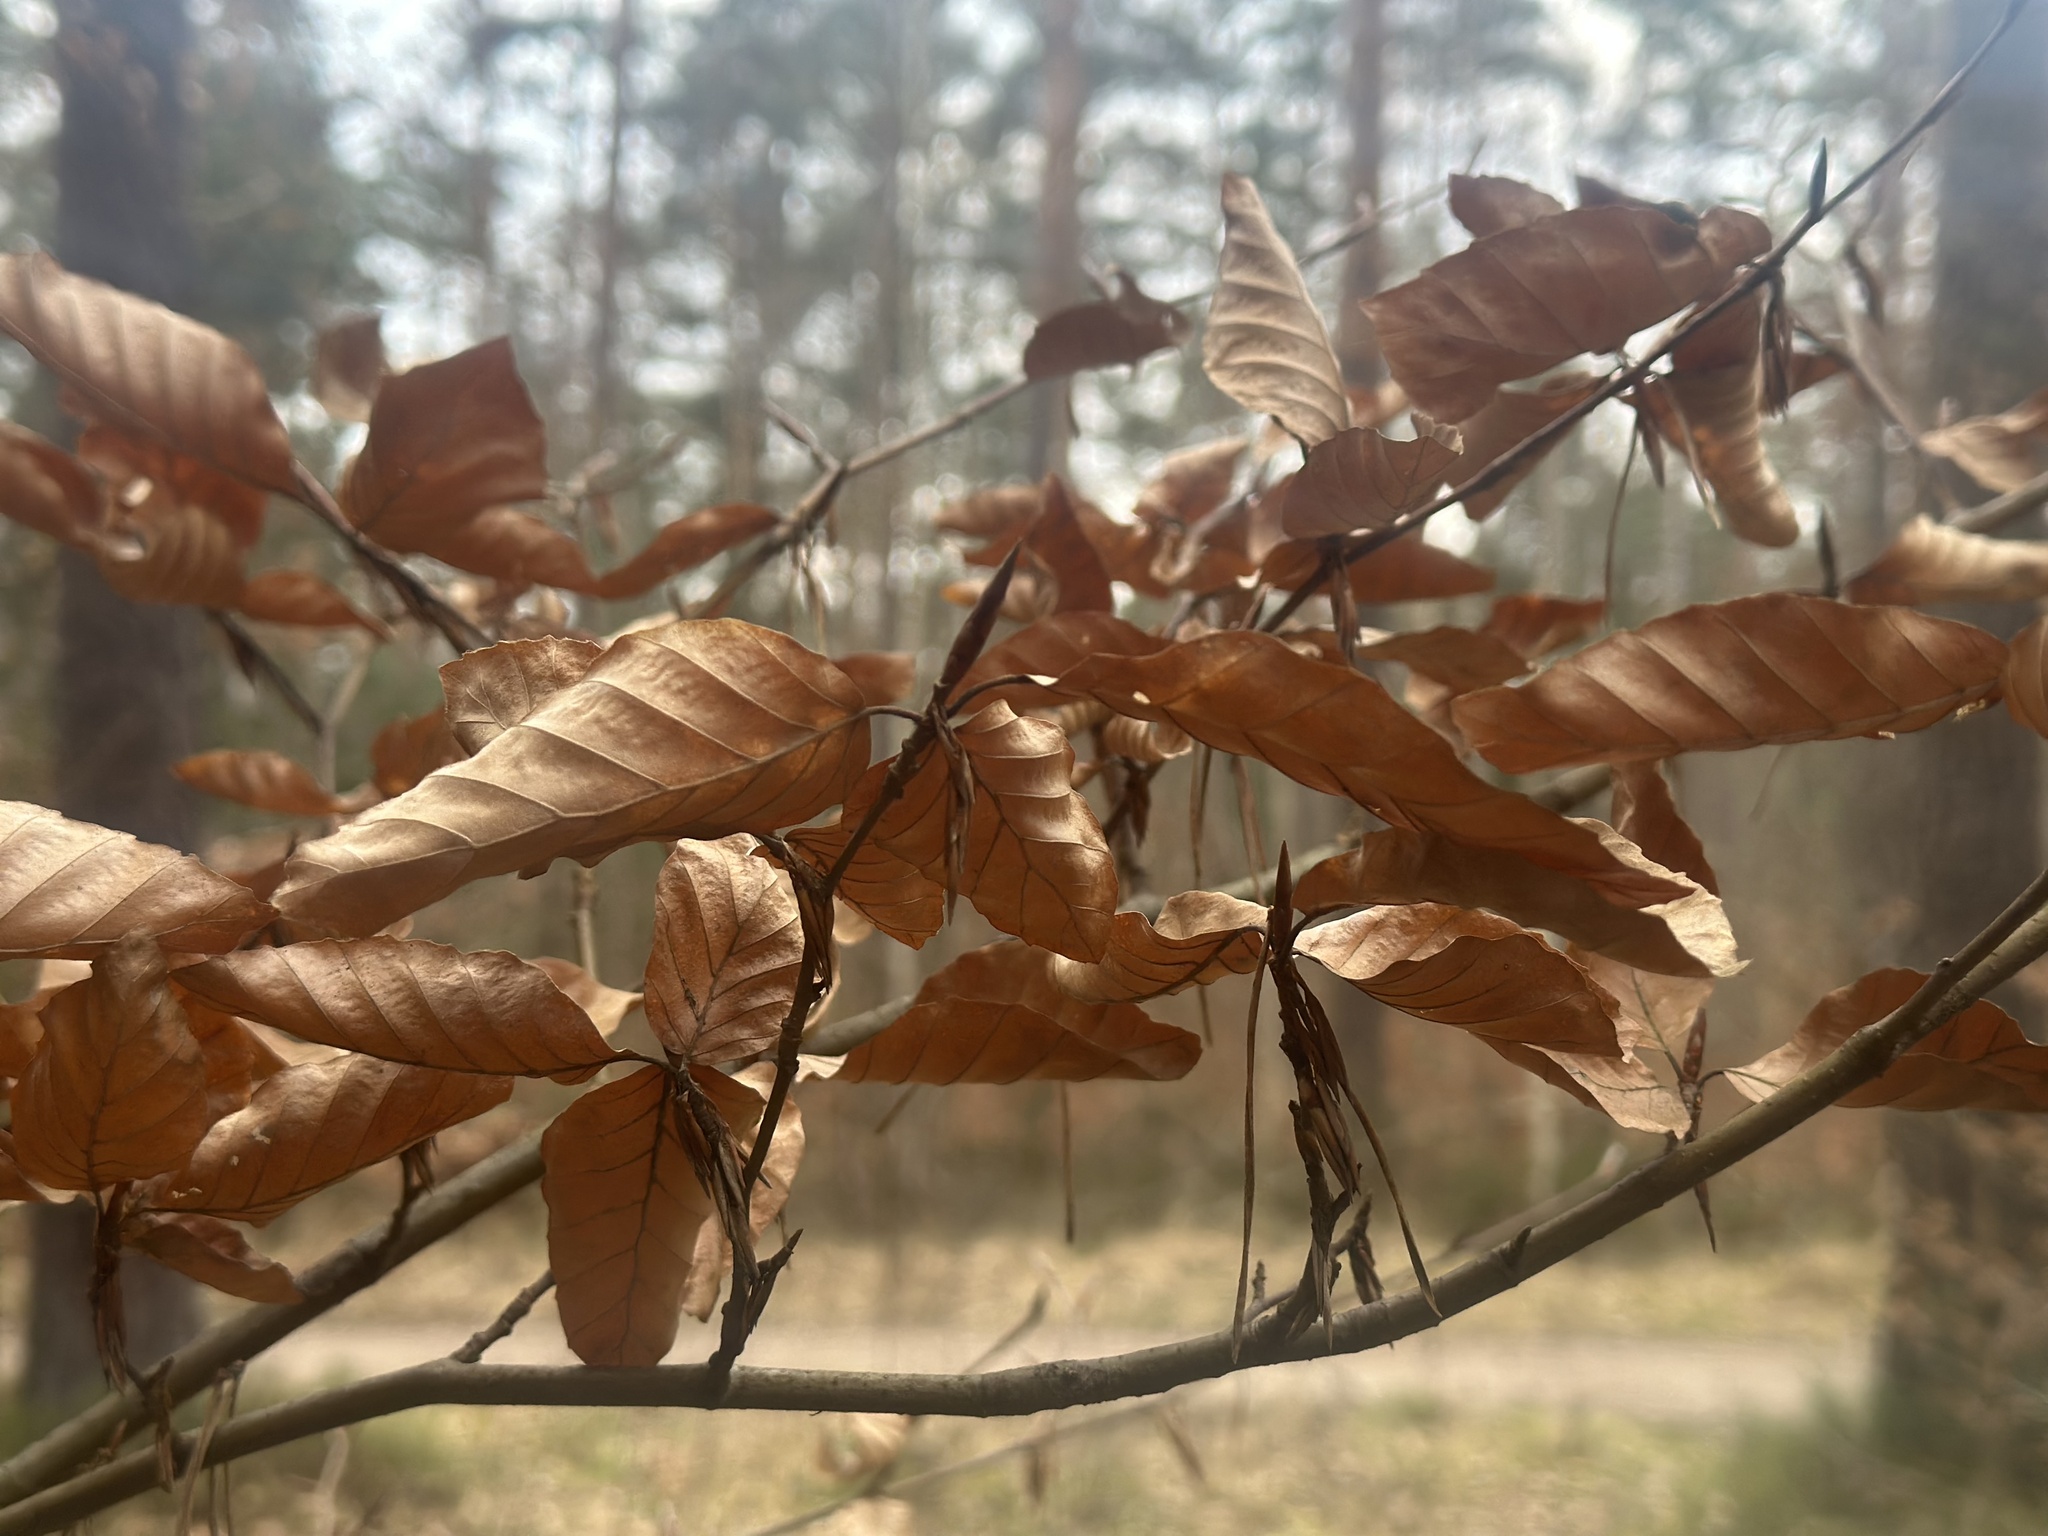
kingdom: Plantae
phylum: Tracheophyta
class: Magnoliopsida
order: Fagales
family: Fagaceae
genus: Fagus
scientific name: Fagus sylvatica
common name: Beech
